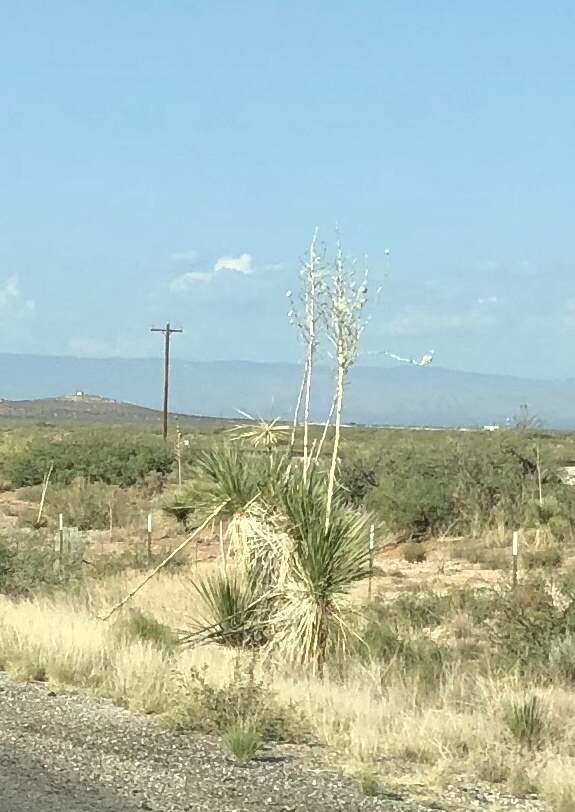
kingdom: Plantae
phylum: Tracheophyta
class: Liliopsida
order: Asparagales
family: Asparagaceae
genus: Yucca
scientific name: Yucca elata
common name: Palmella
